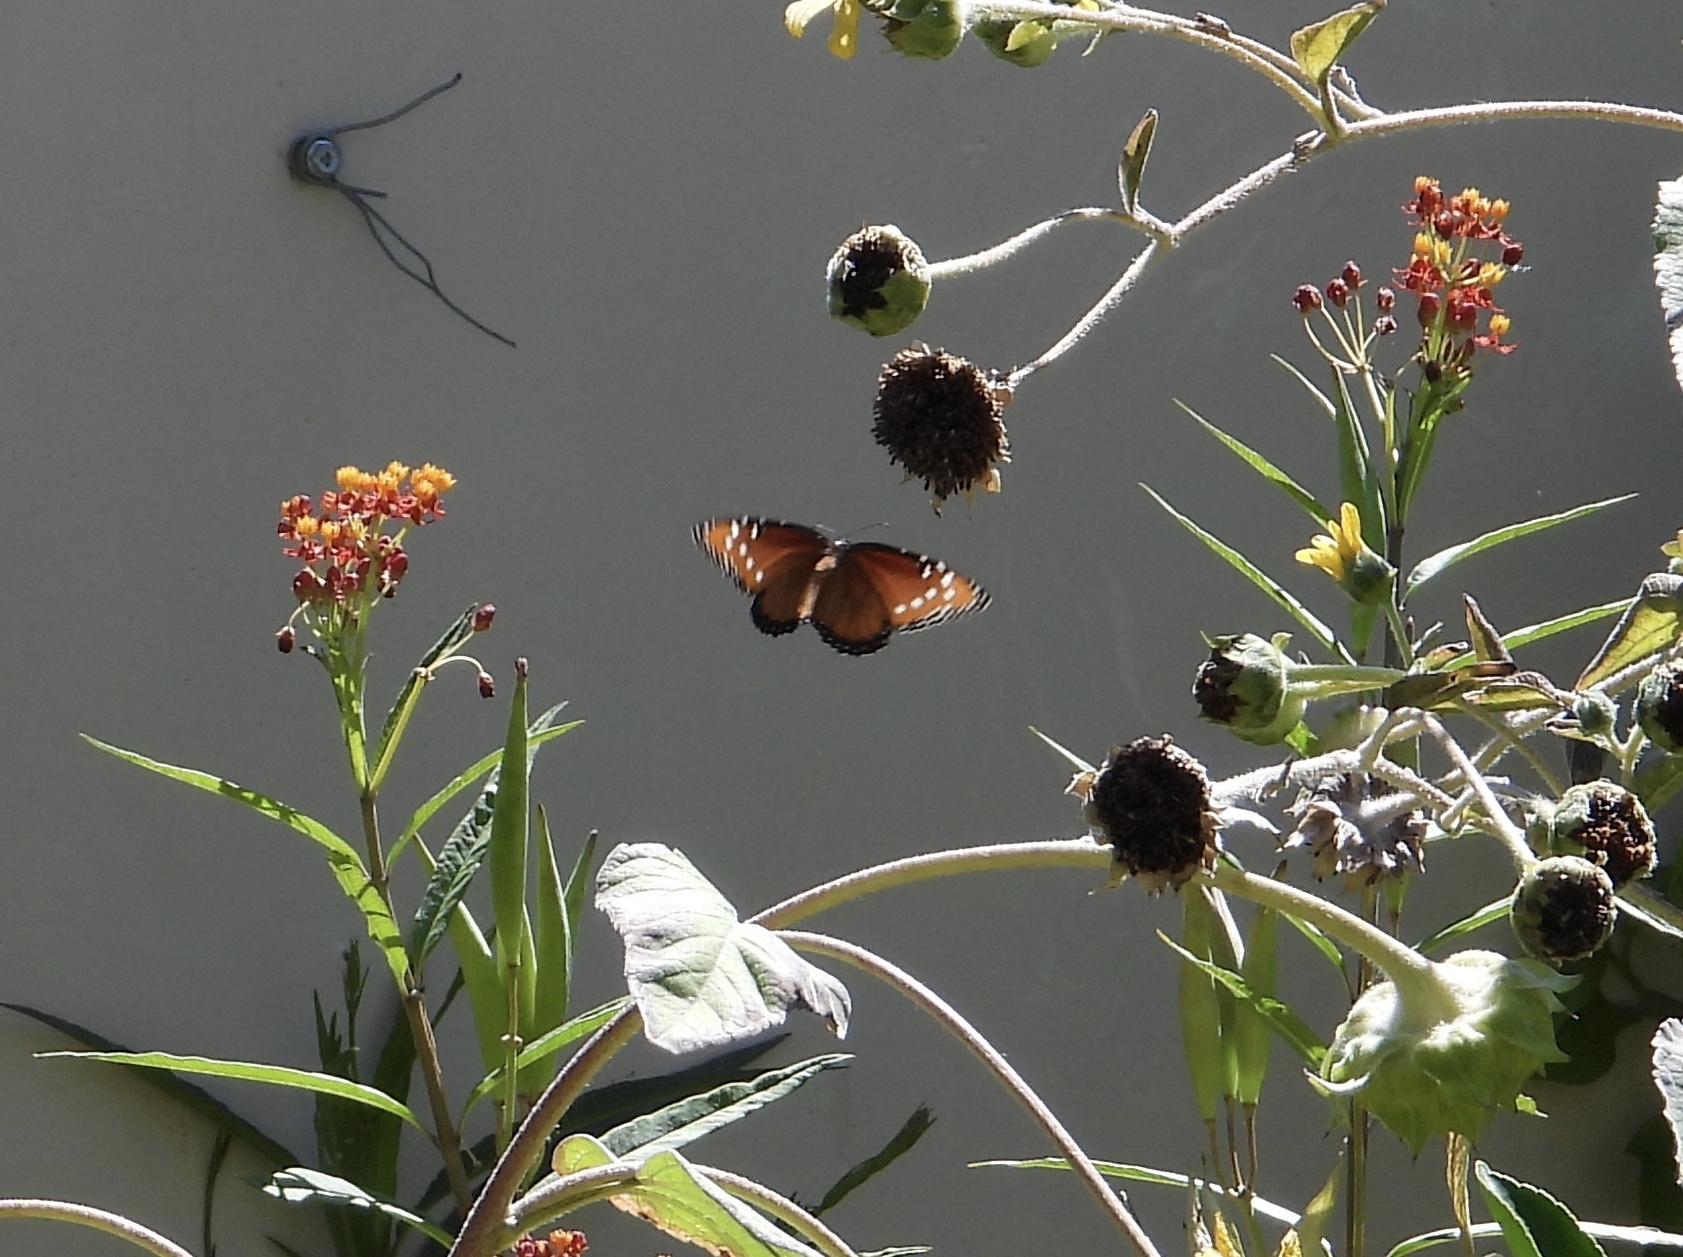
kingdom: Animalia
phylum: Arthropoda
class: Insecta
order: Lepidoptera
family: Nymphalidae
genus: Danaus
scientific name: Danaus gilippus
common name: Queen
